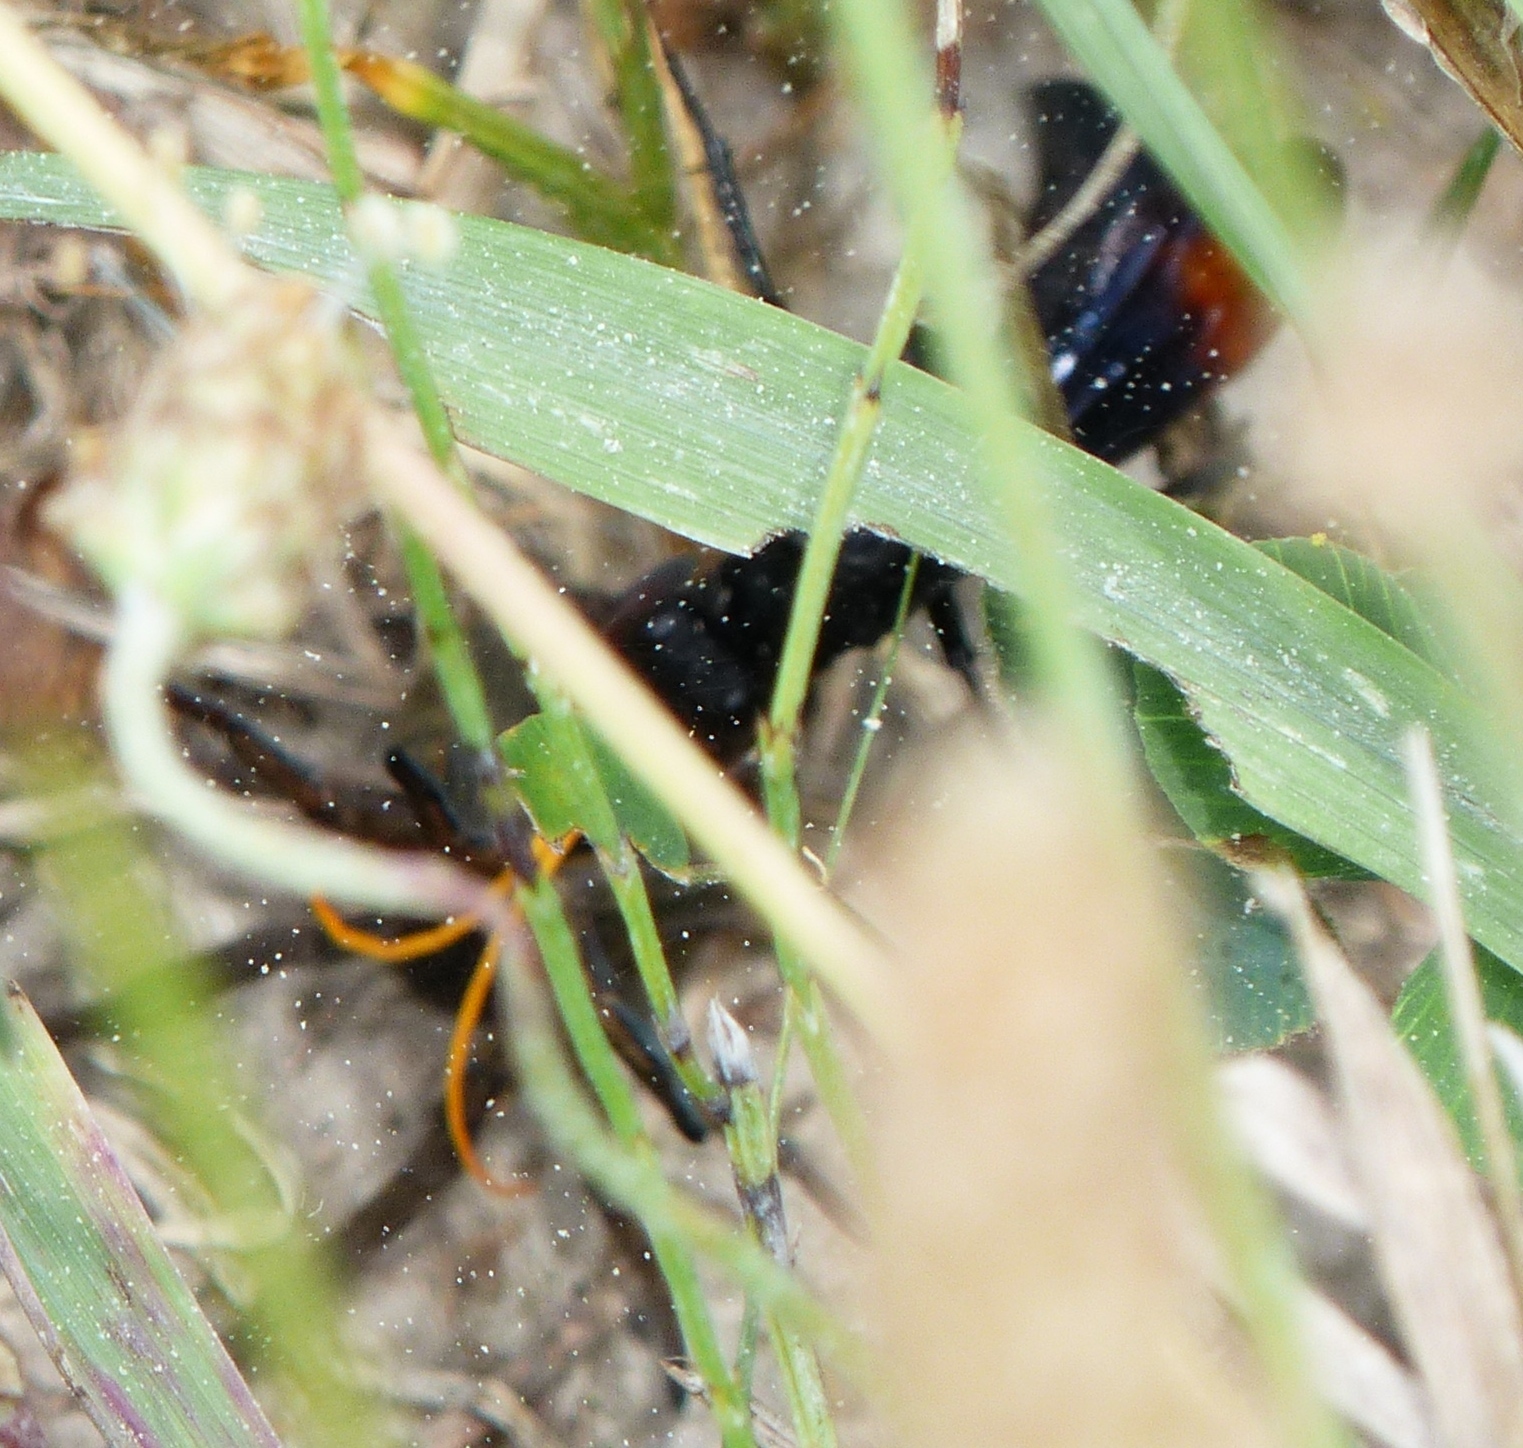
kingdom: Animalia
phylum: Arthropoda
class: Insecta
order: Hymenoptera
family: Pompilidae
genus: Entypus
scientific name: Entypus unifasciatus
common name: Eastern tawny-horned spider wasp
